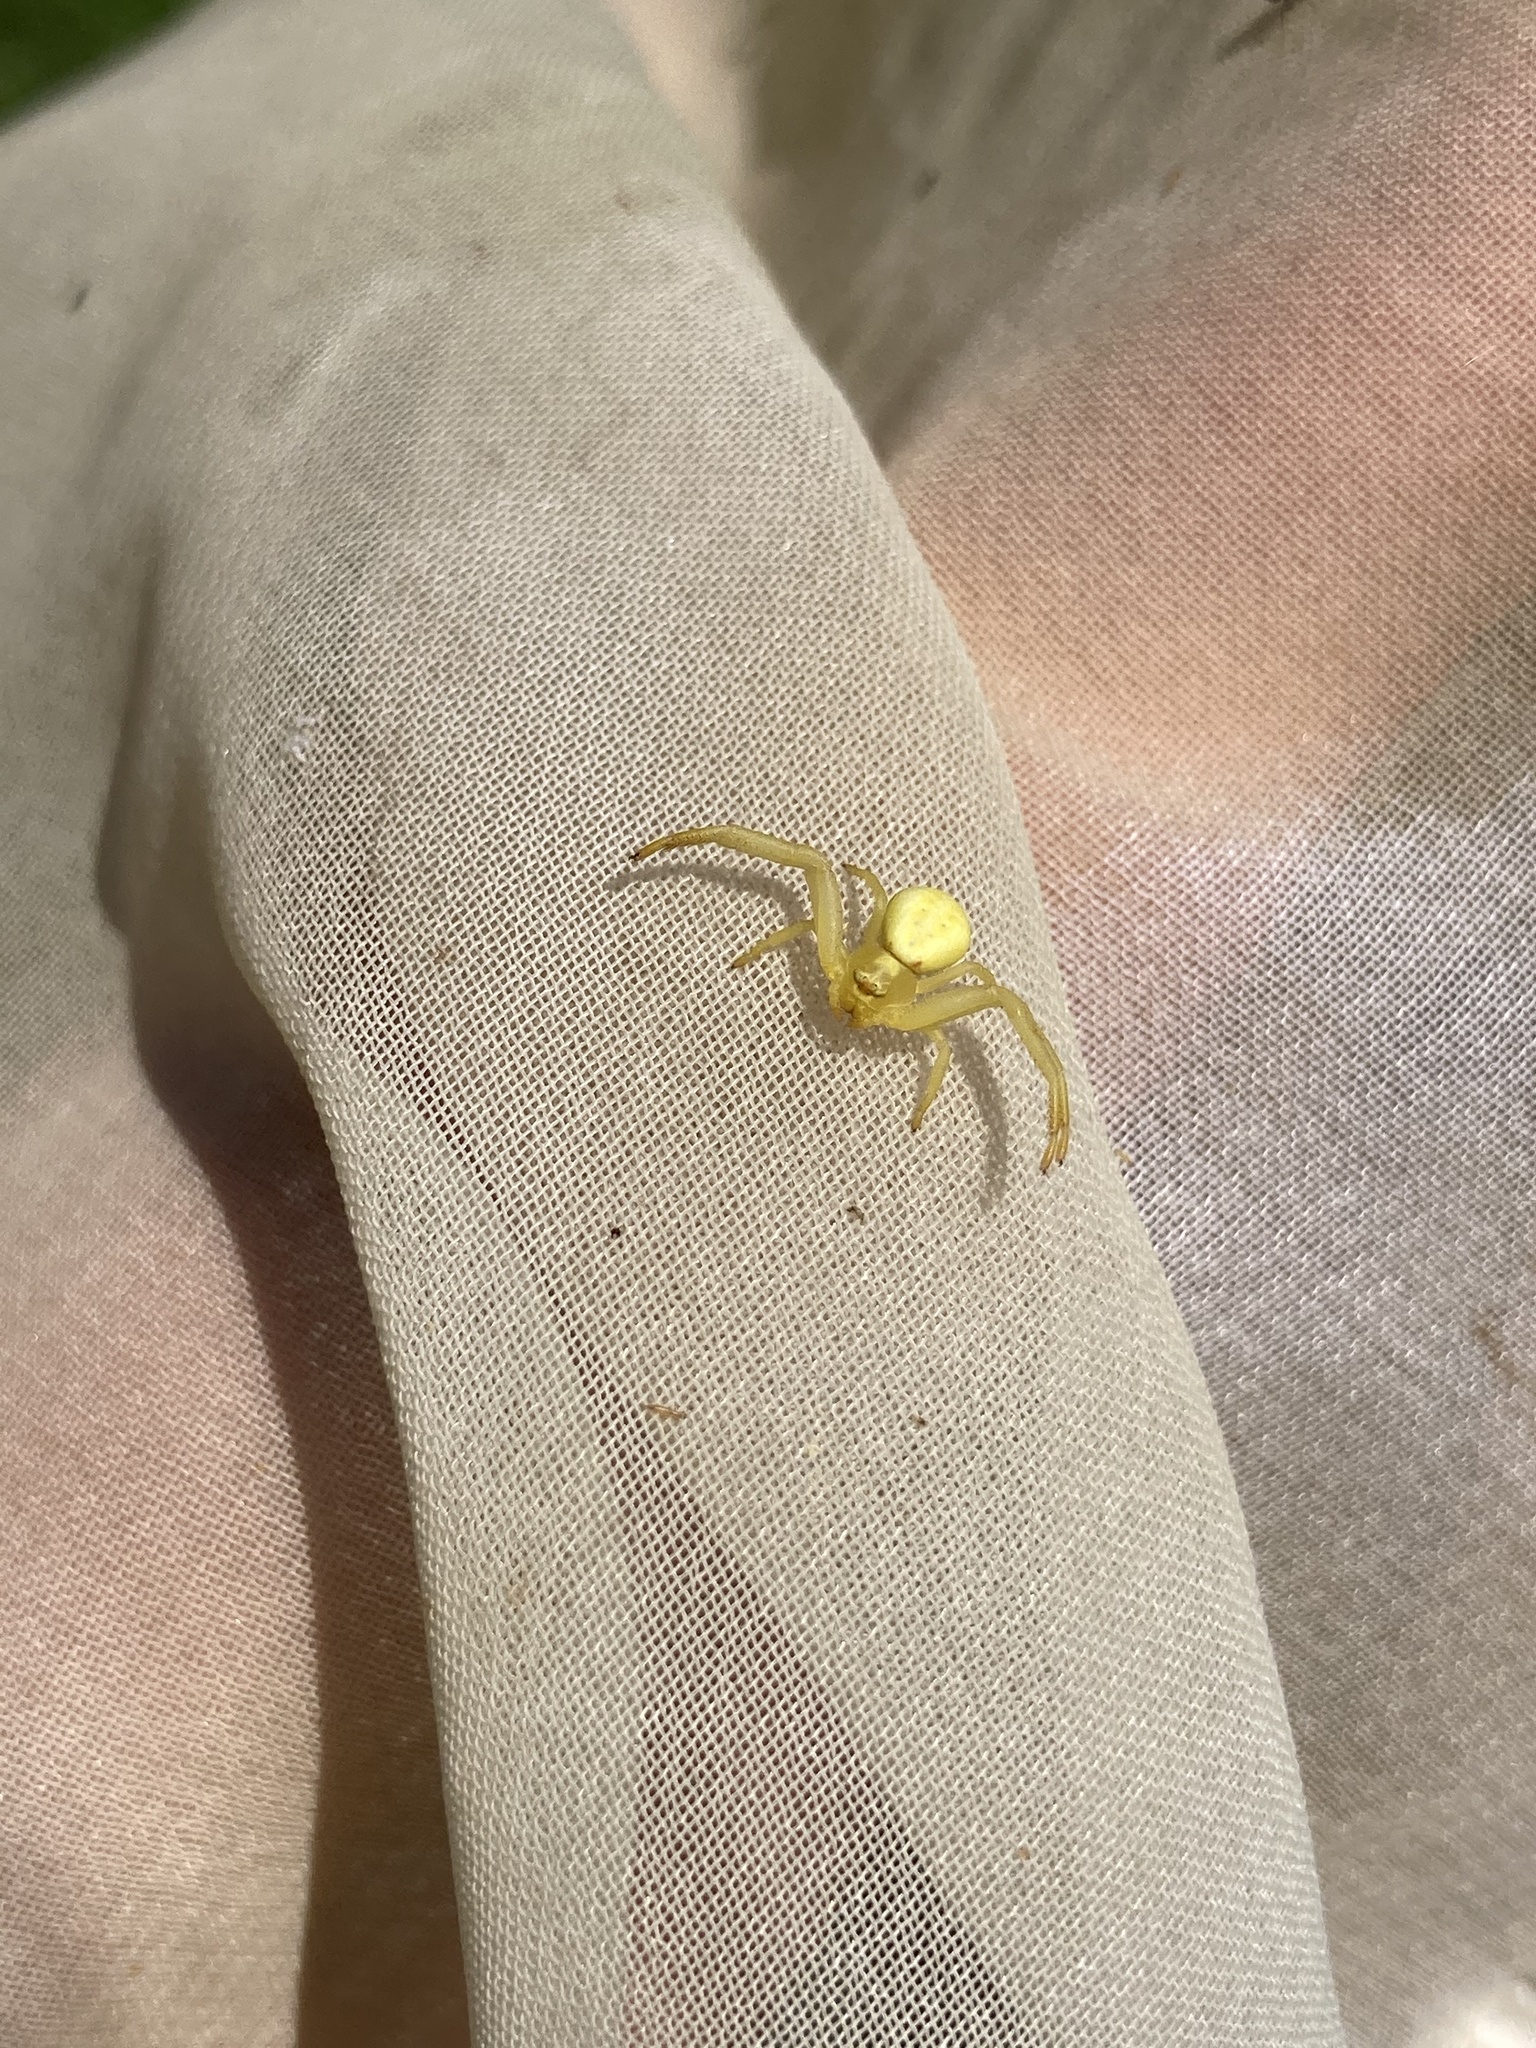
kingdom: Animalia
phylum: Arthropoda
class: Arachnida
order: Araneae
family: Thomisidae
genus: Misumena
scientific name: Misumena vatia
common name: Goldenrod crab spider
